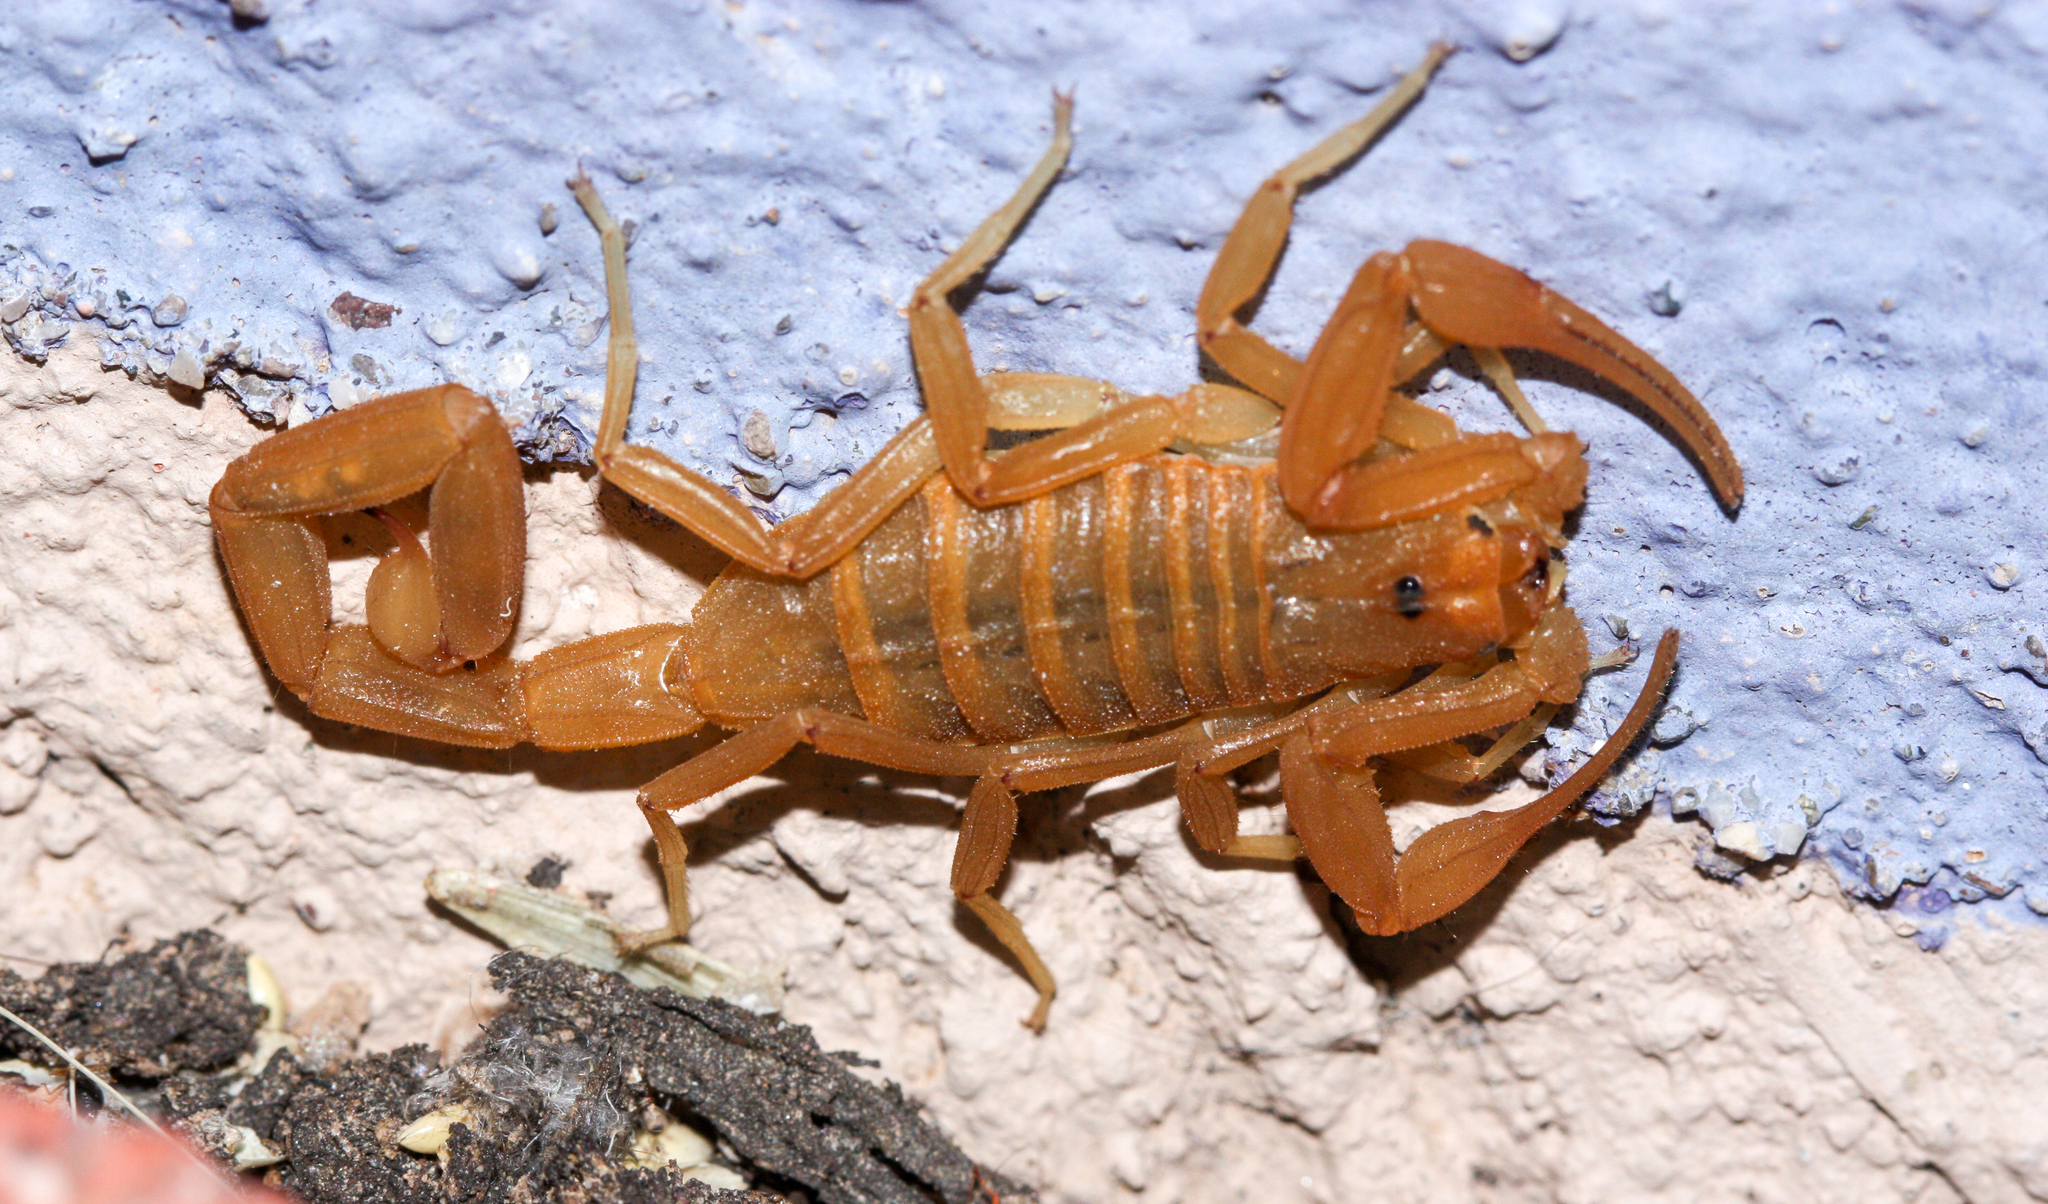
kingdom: Animalia
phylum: Arthropoda
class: Arachnida
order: Scorpiones
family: Buthidae
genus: Centruroides
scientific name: Centruroides sculpturatus
